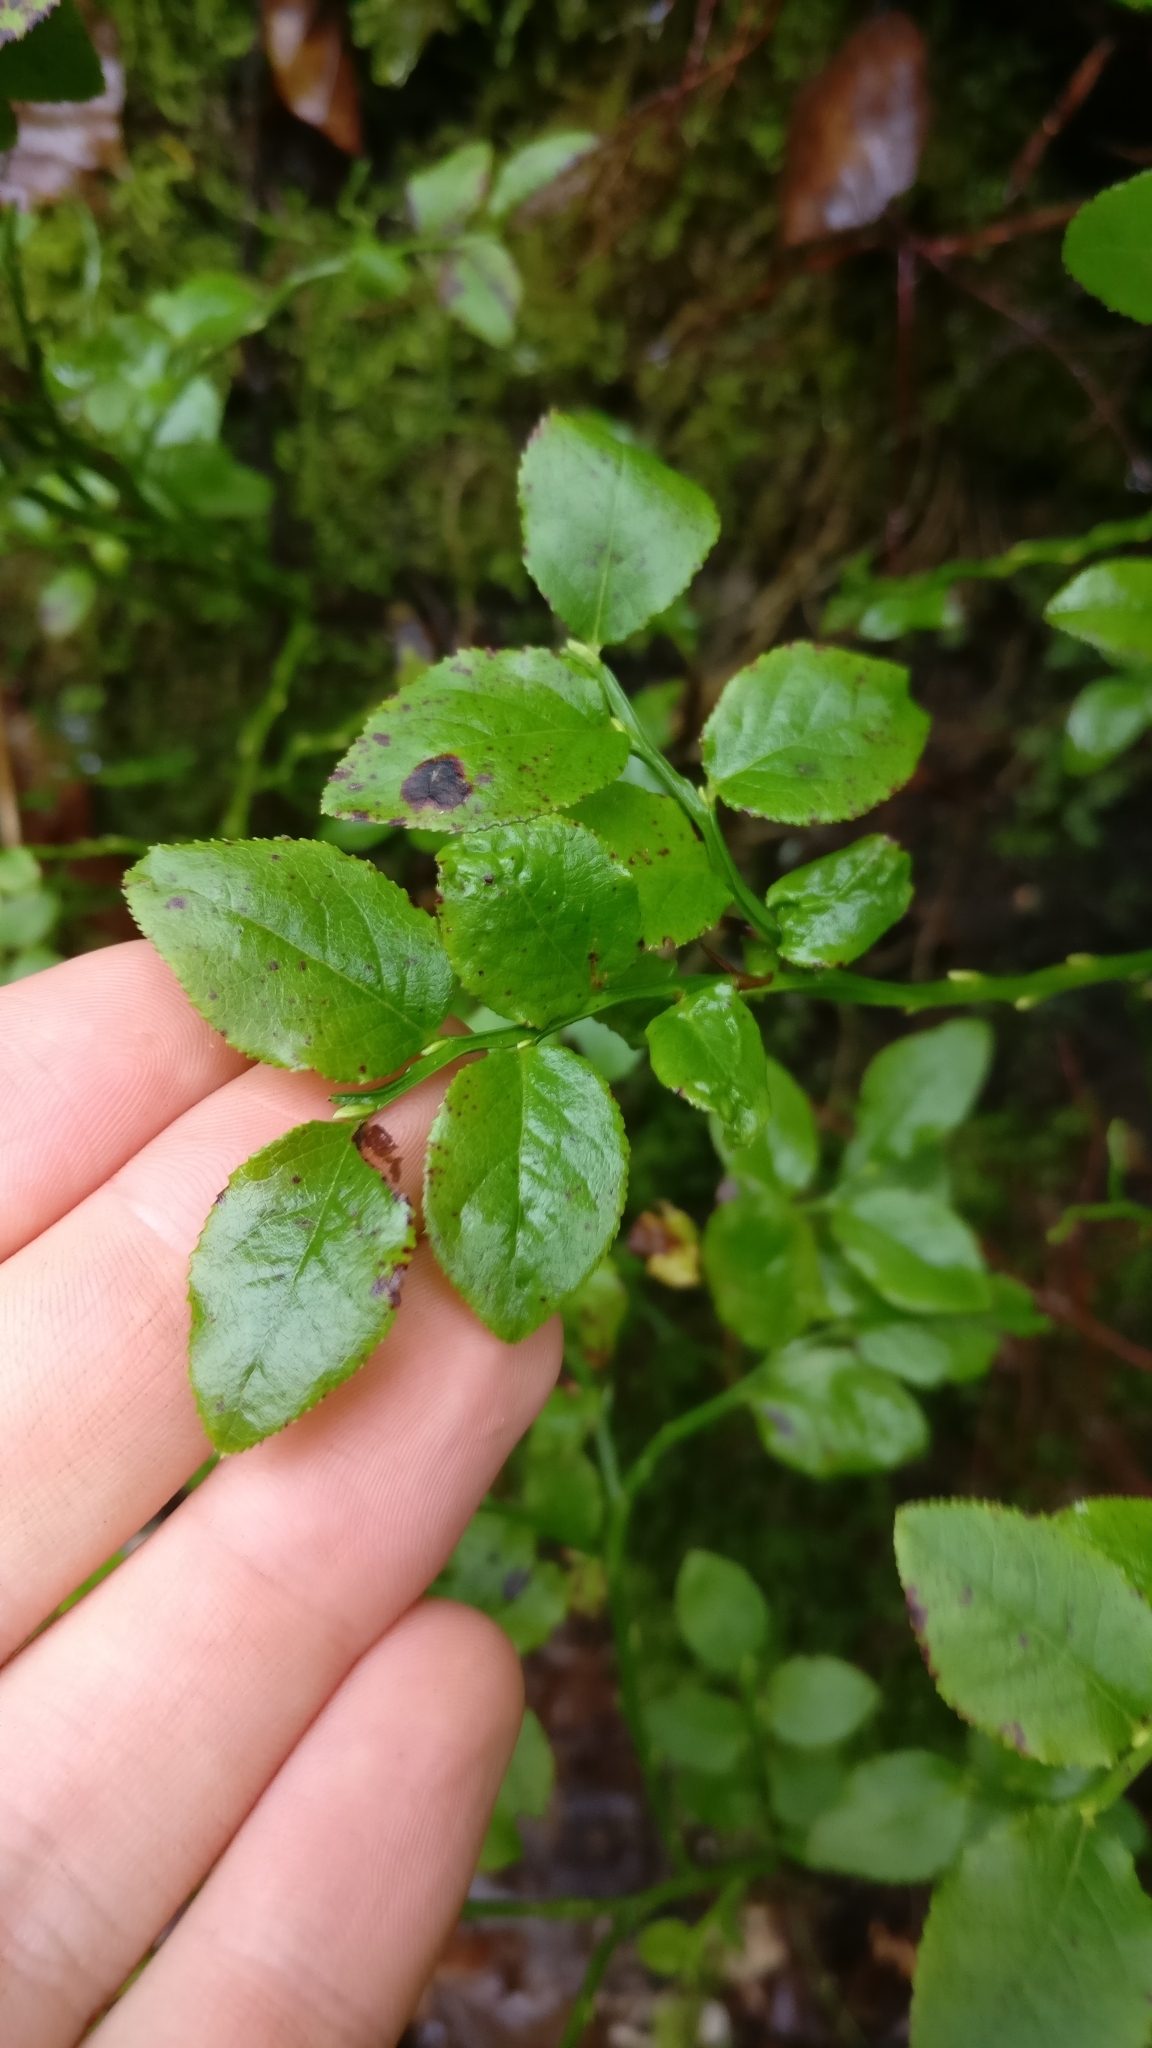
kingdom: Plantae
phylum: Tracheophyta
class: Magnoliopsida
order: Ericales
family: Ericaceae
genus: Vaccinium
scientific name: Vaccinium myrtillus
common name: Bilberry
